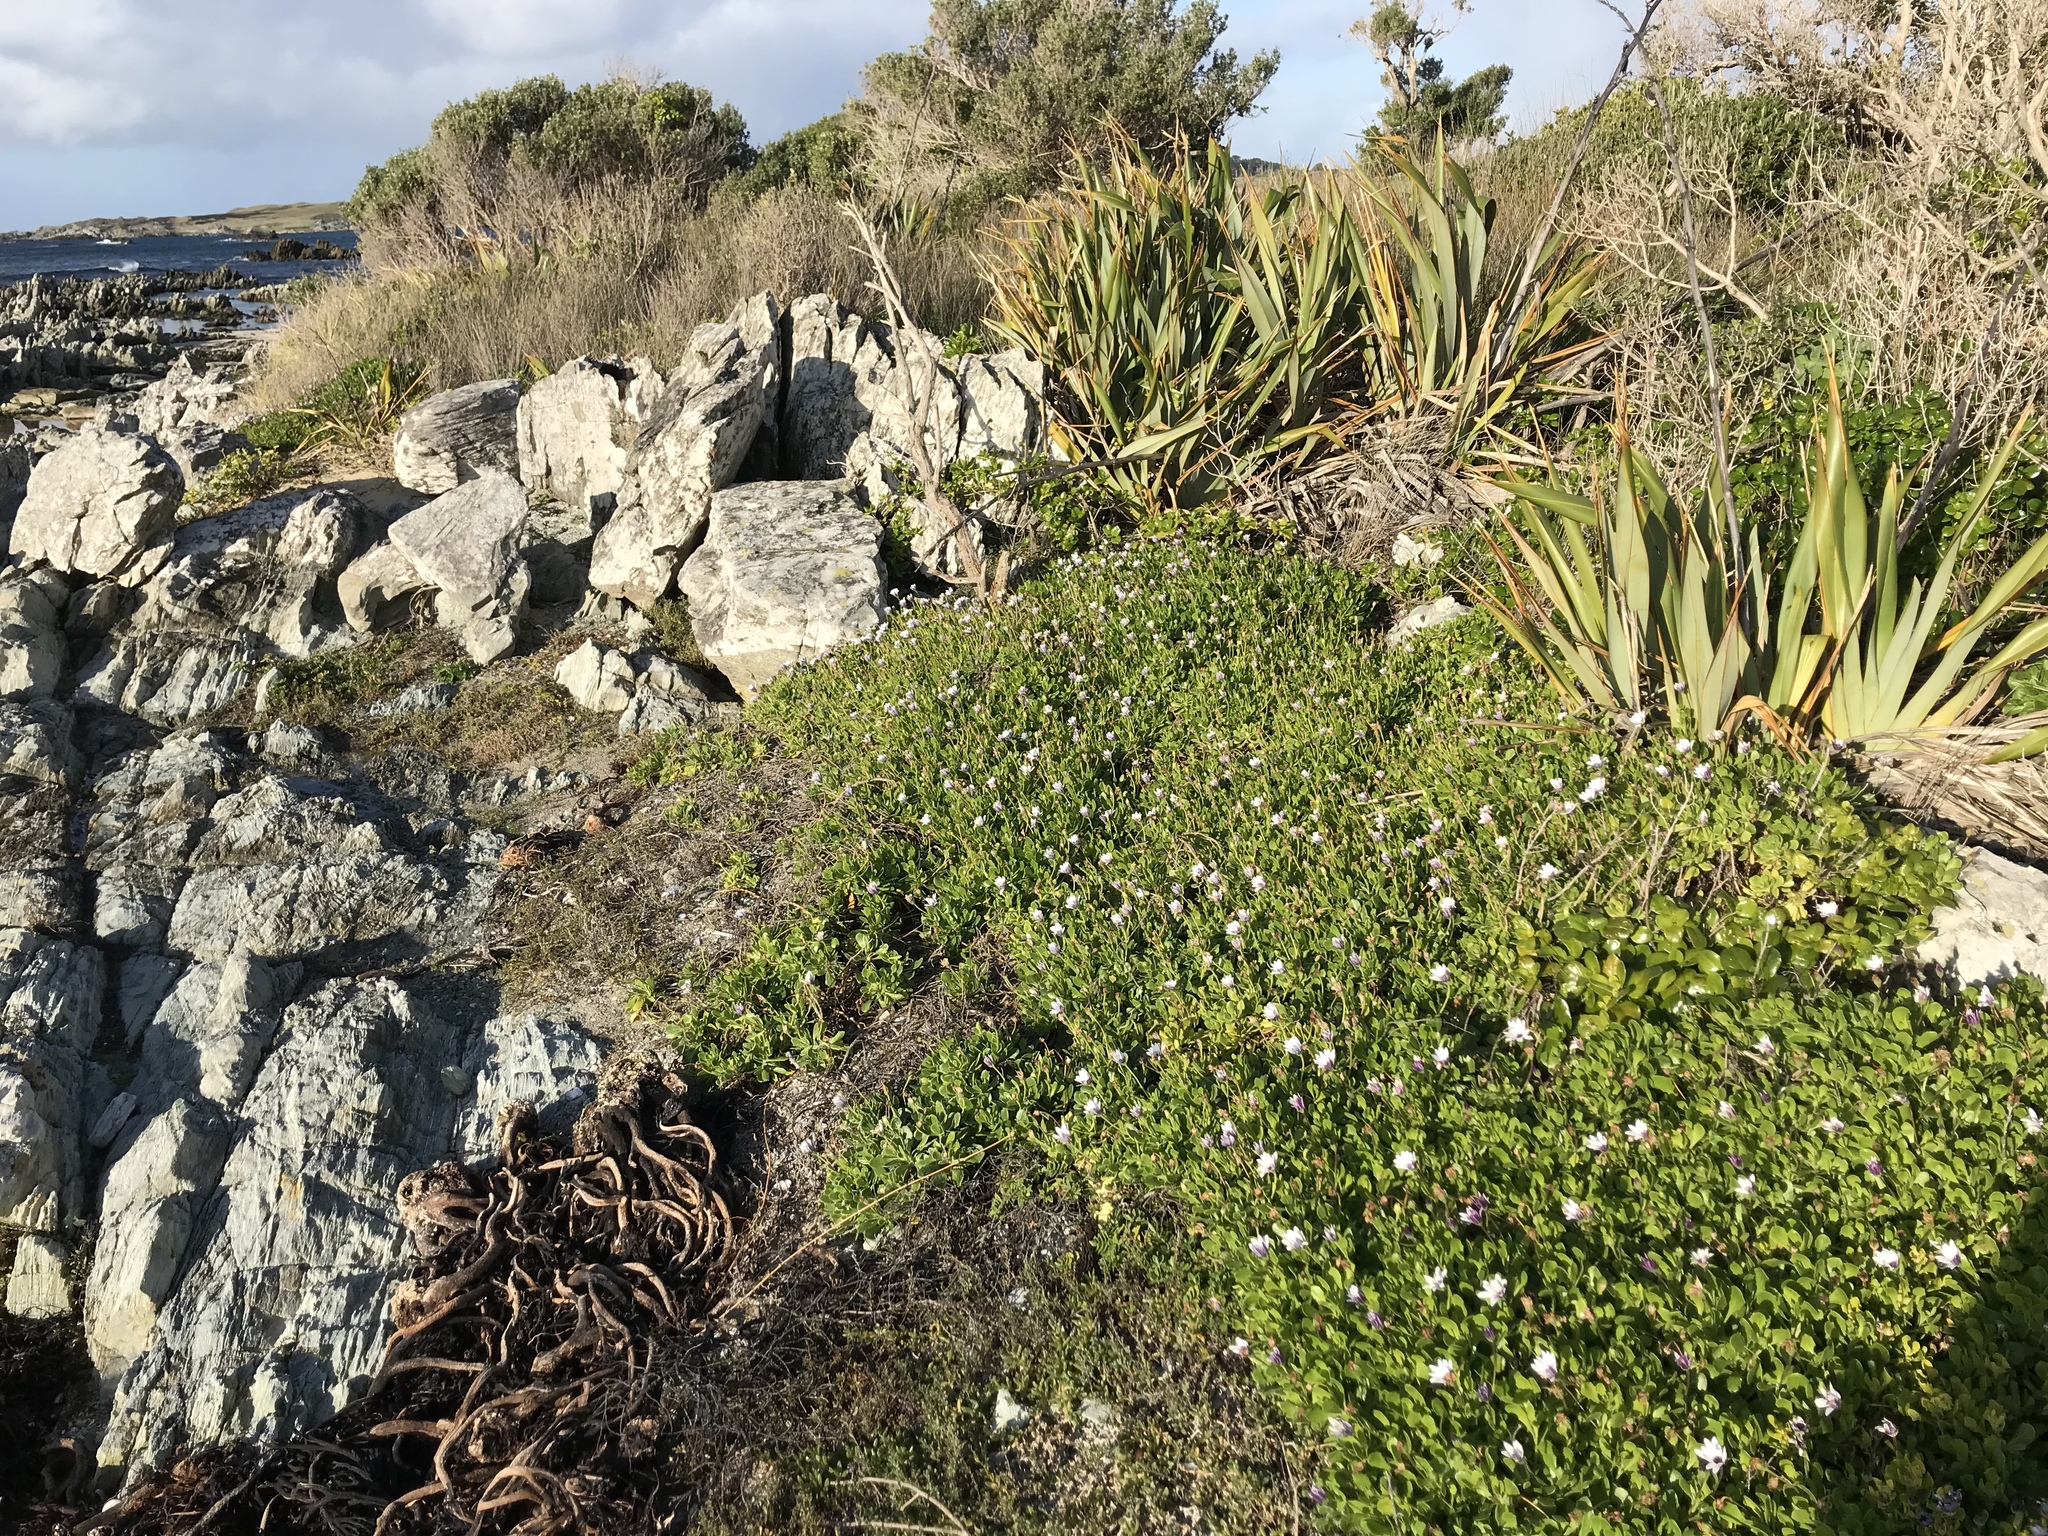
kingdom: Plantae
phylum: Tracheophyta
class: Magnoliopsida
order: Asterales
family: Asteraceae
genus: Dimorphotheca
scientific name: Dimorphotheca ecklonis
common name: Vanstaden's river daisy
